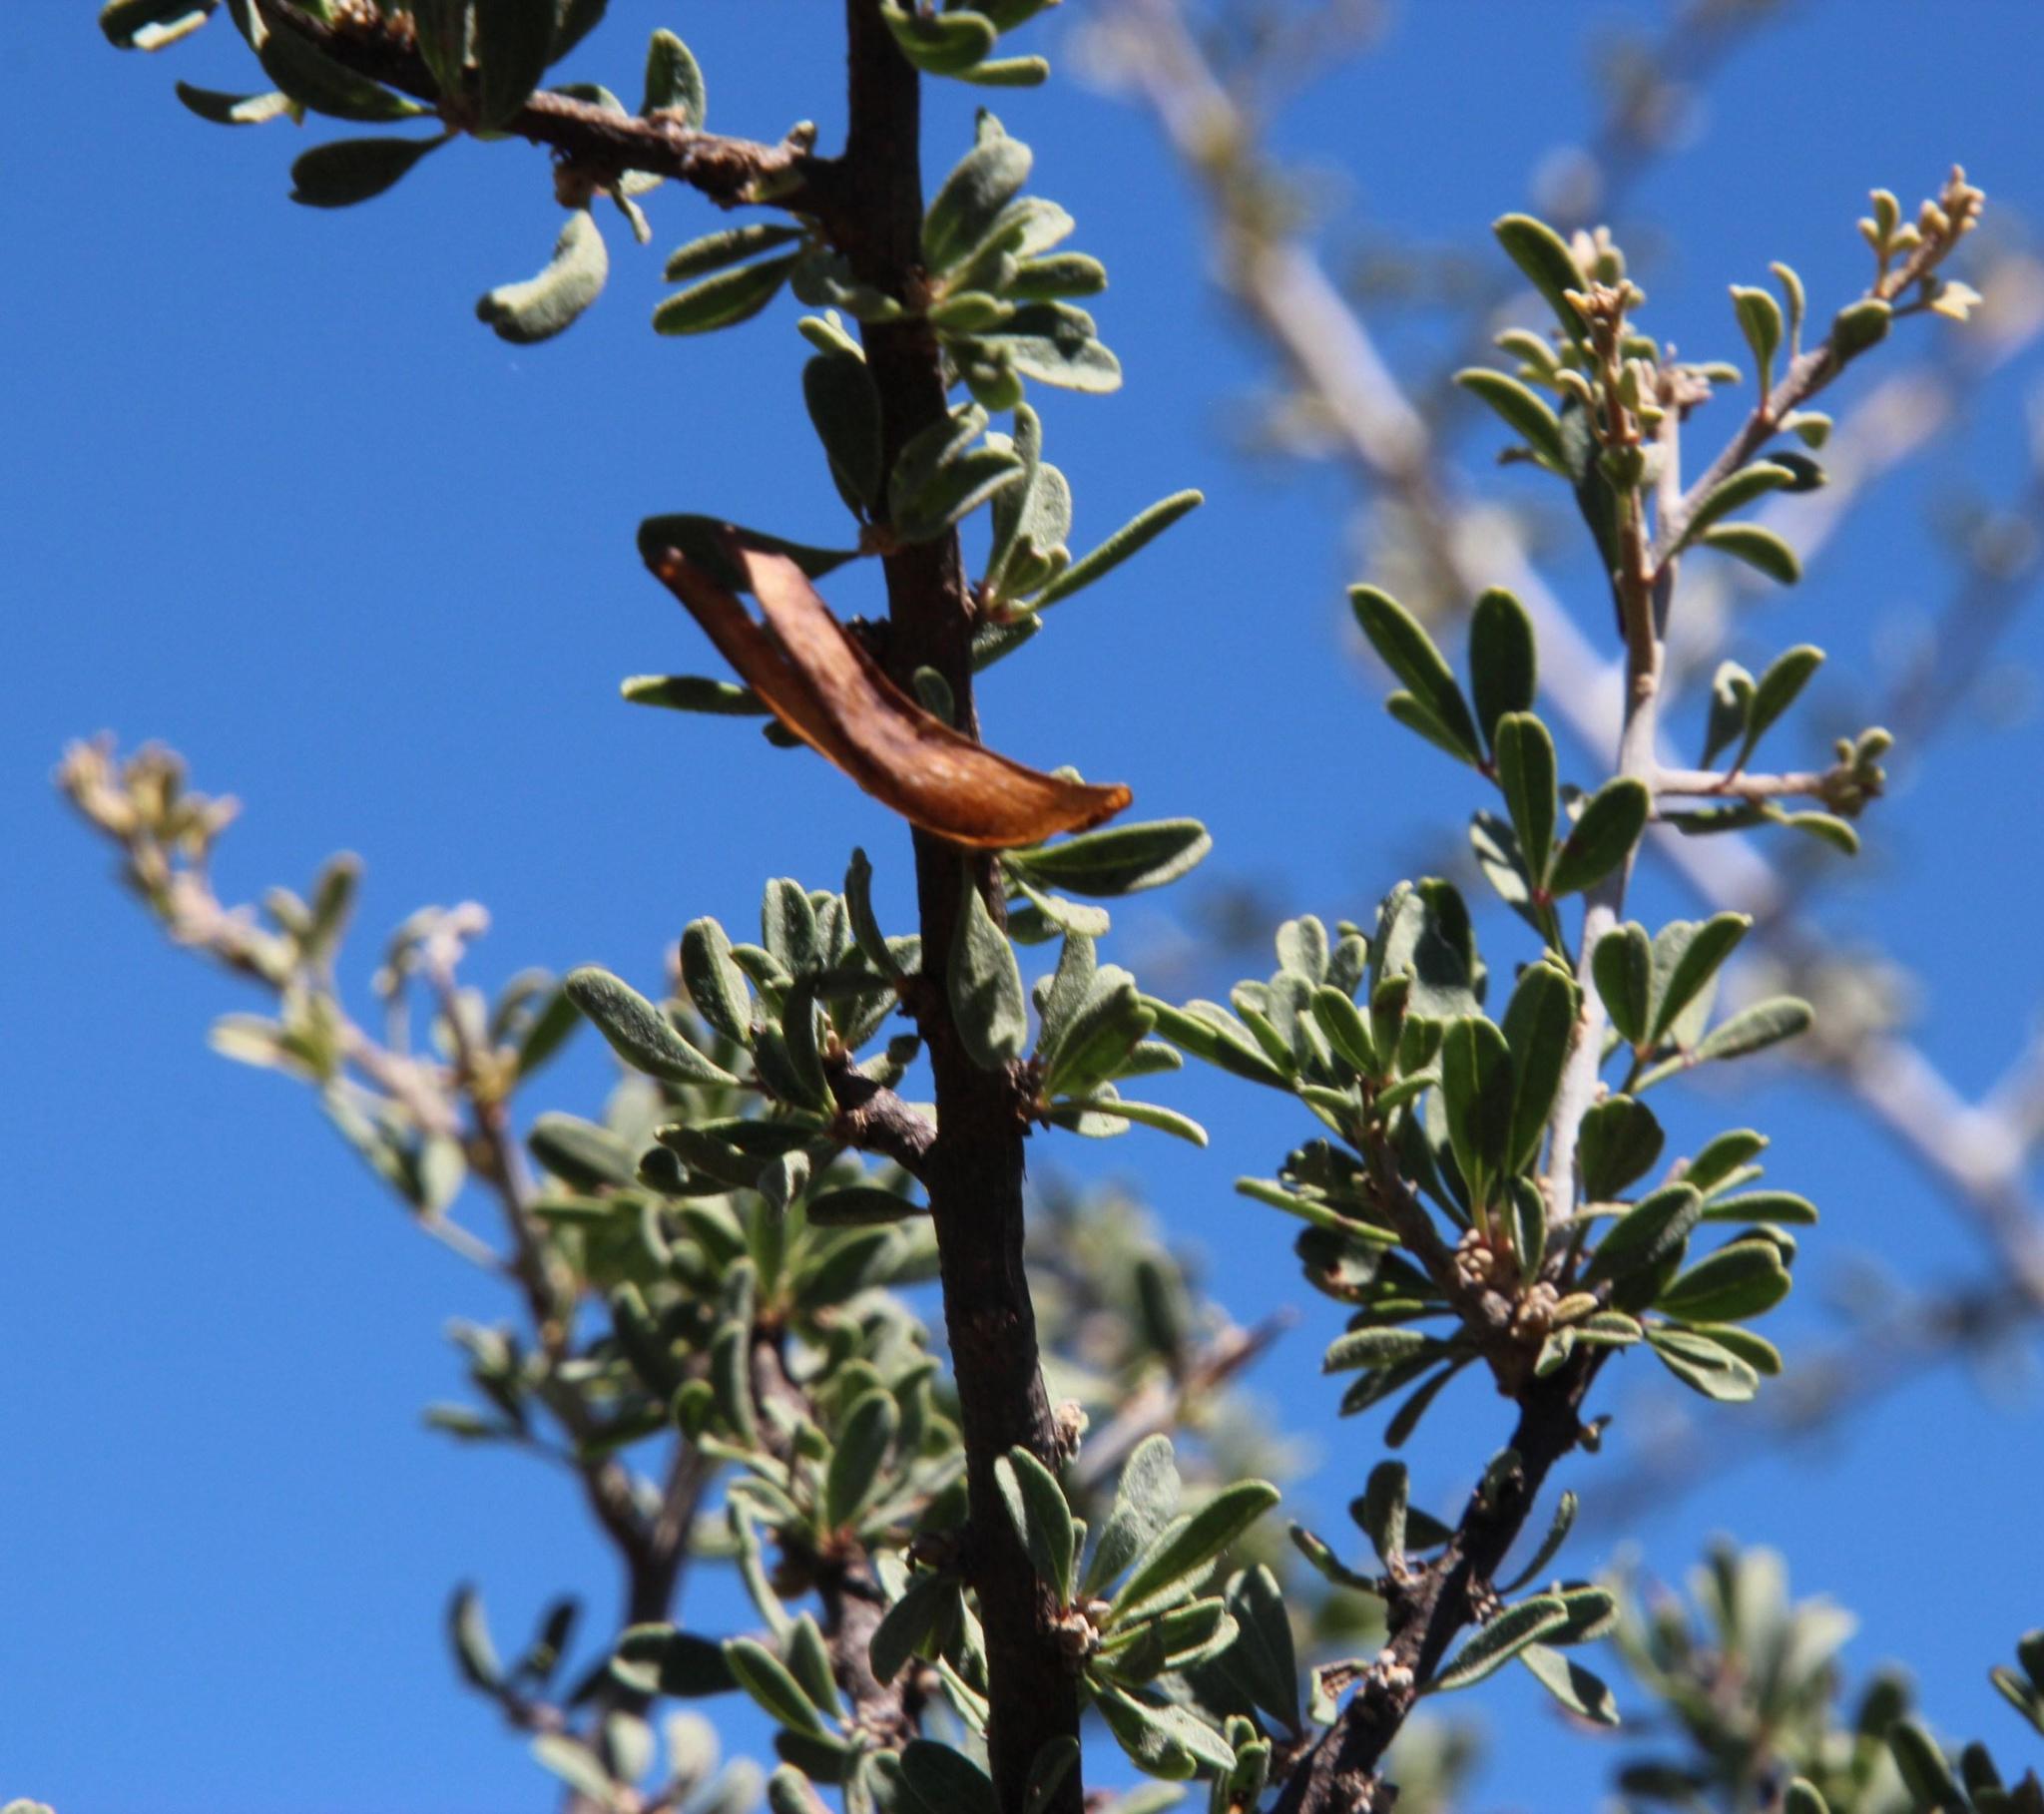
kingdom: Plantae
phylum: Tracheophyta
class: Magnoliopsida
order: Lamiales
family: Bignoniaceae
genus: Rhigozum
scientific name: Rhigozum obovatum
